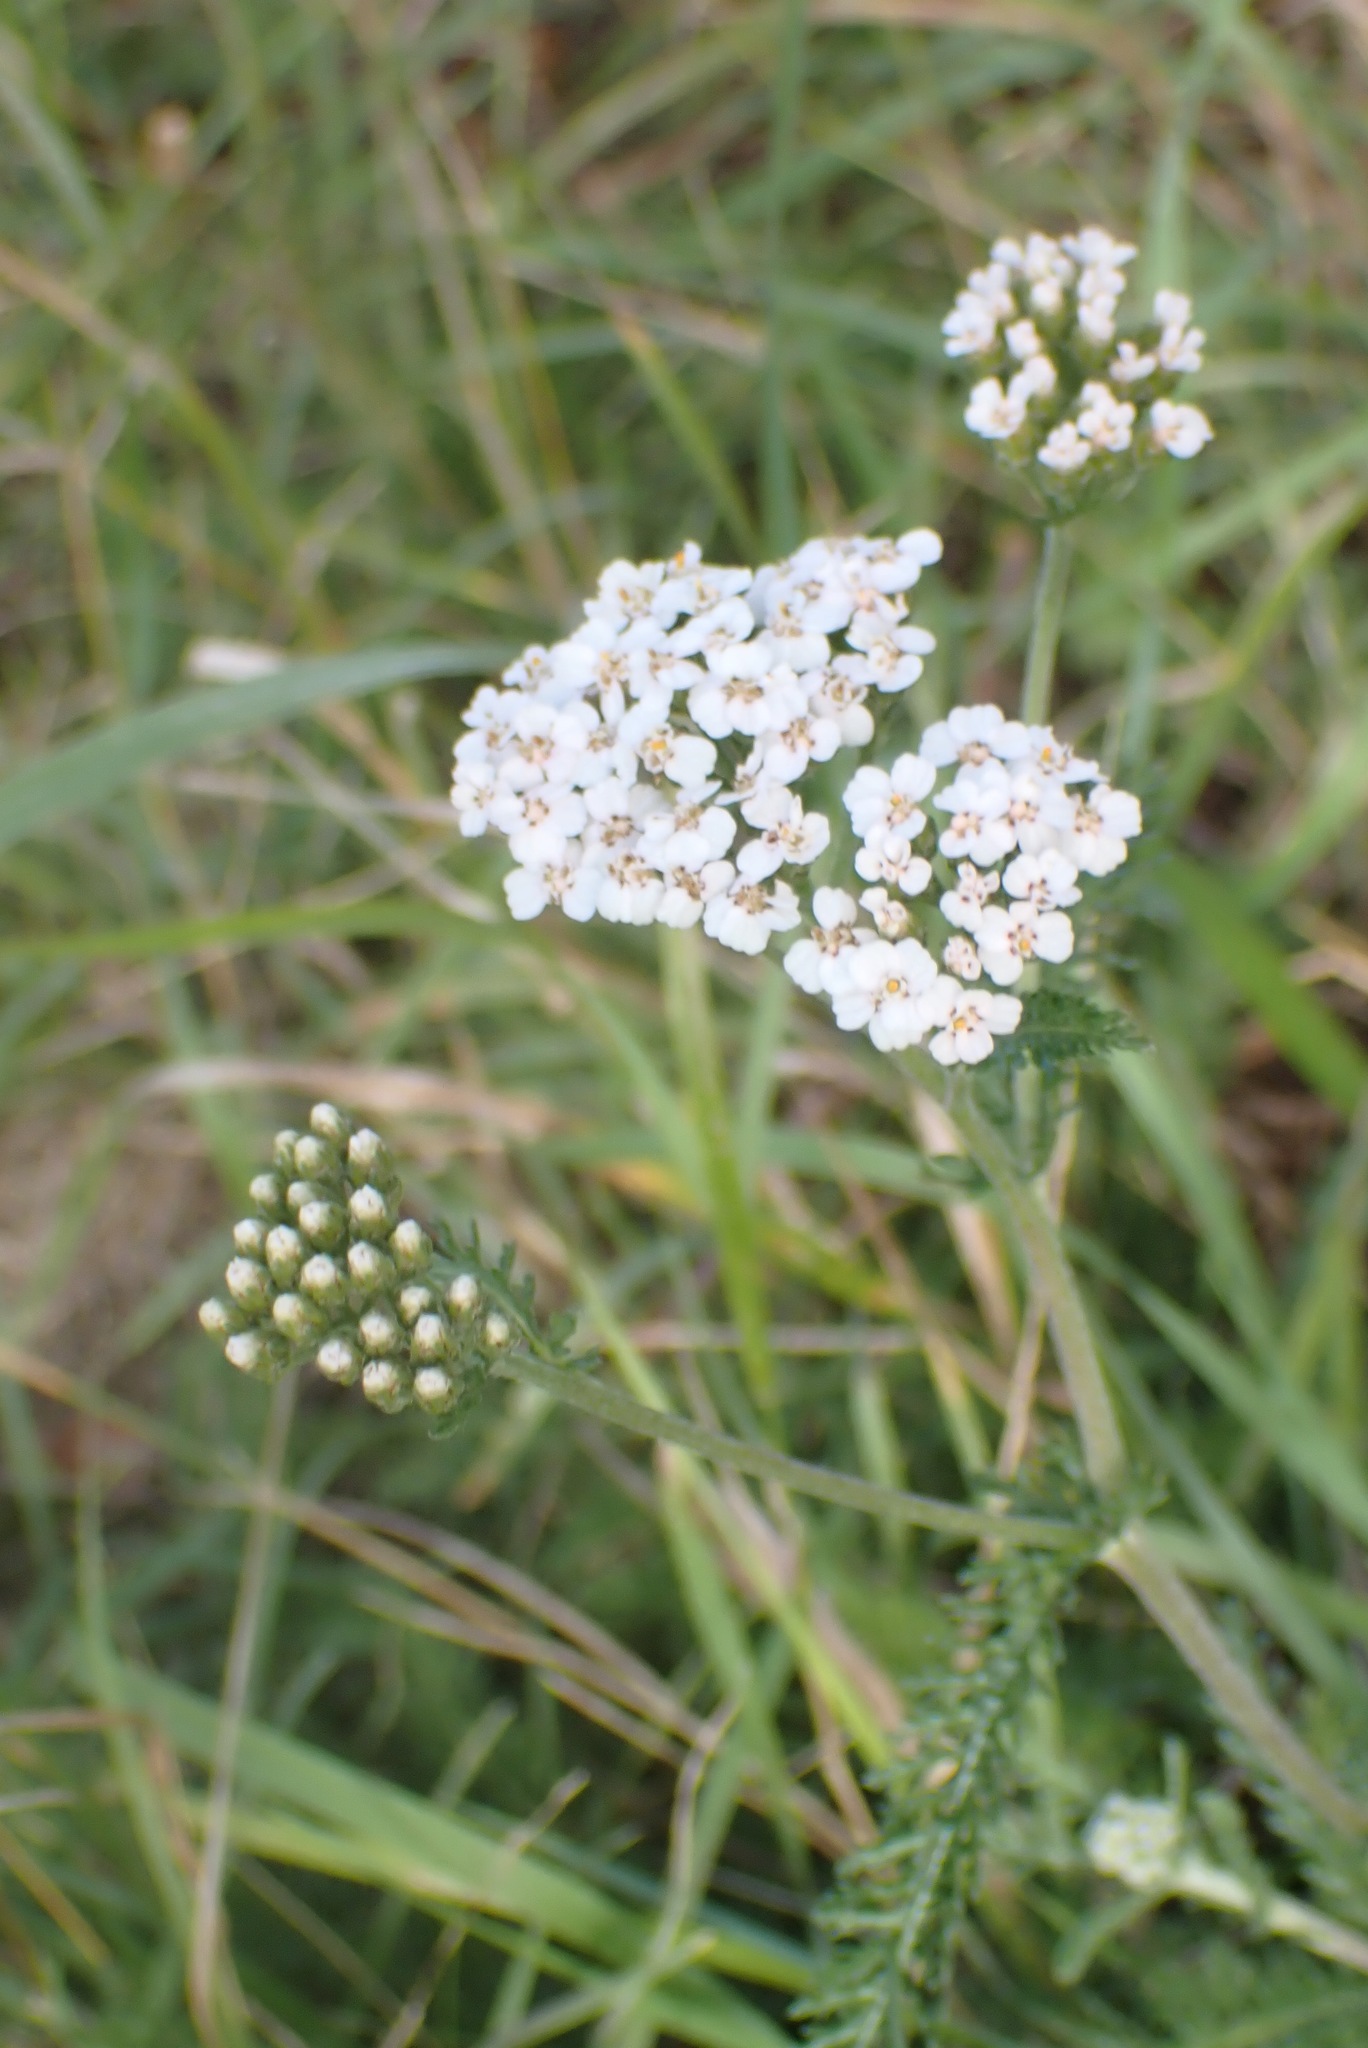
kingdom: Plantae
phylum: Tracheophyta
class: Magnoliopsida
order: Asterales
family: Asteraceae
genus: Achillea
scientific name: Achillea millefolium
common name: Yarrow
